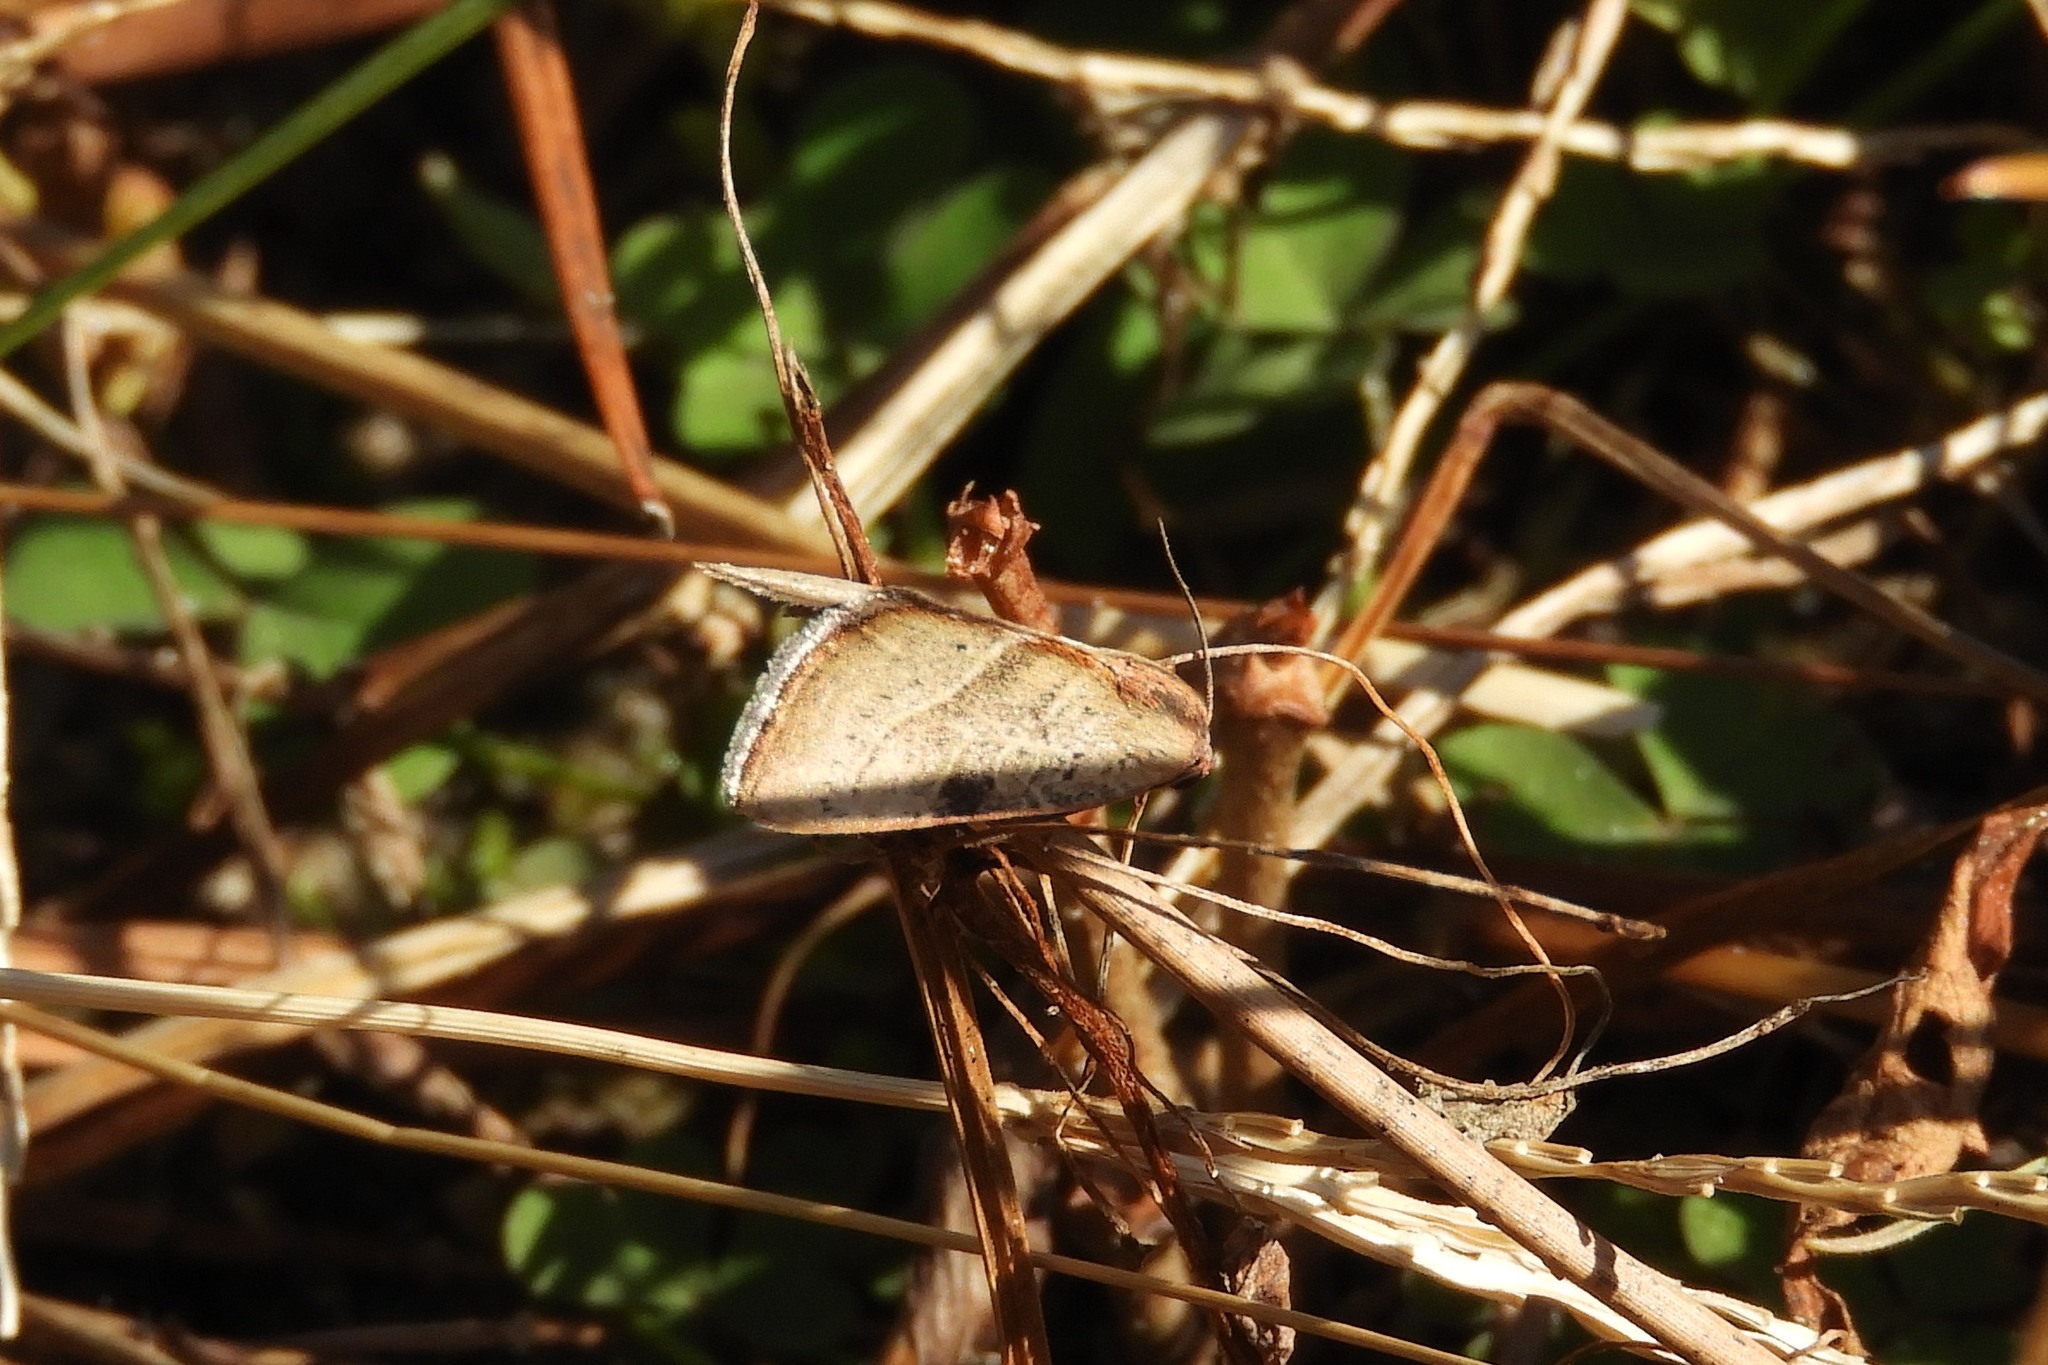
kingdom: Animalia
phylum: Arthropoda
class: Insecta
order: Lepidoptera
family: Noctuidae
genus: Galgula
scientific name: Galgula partita
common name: Wedgeling
